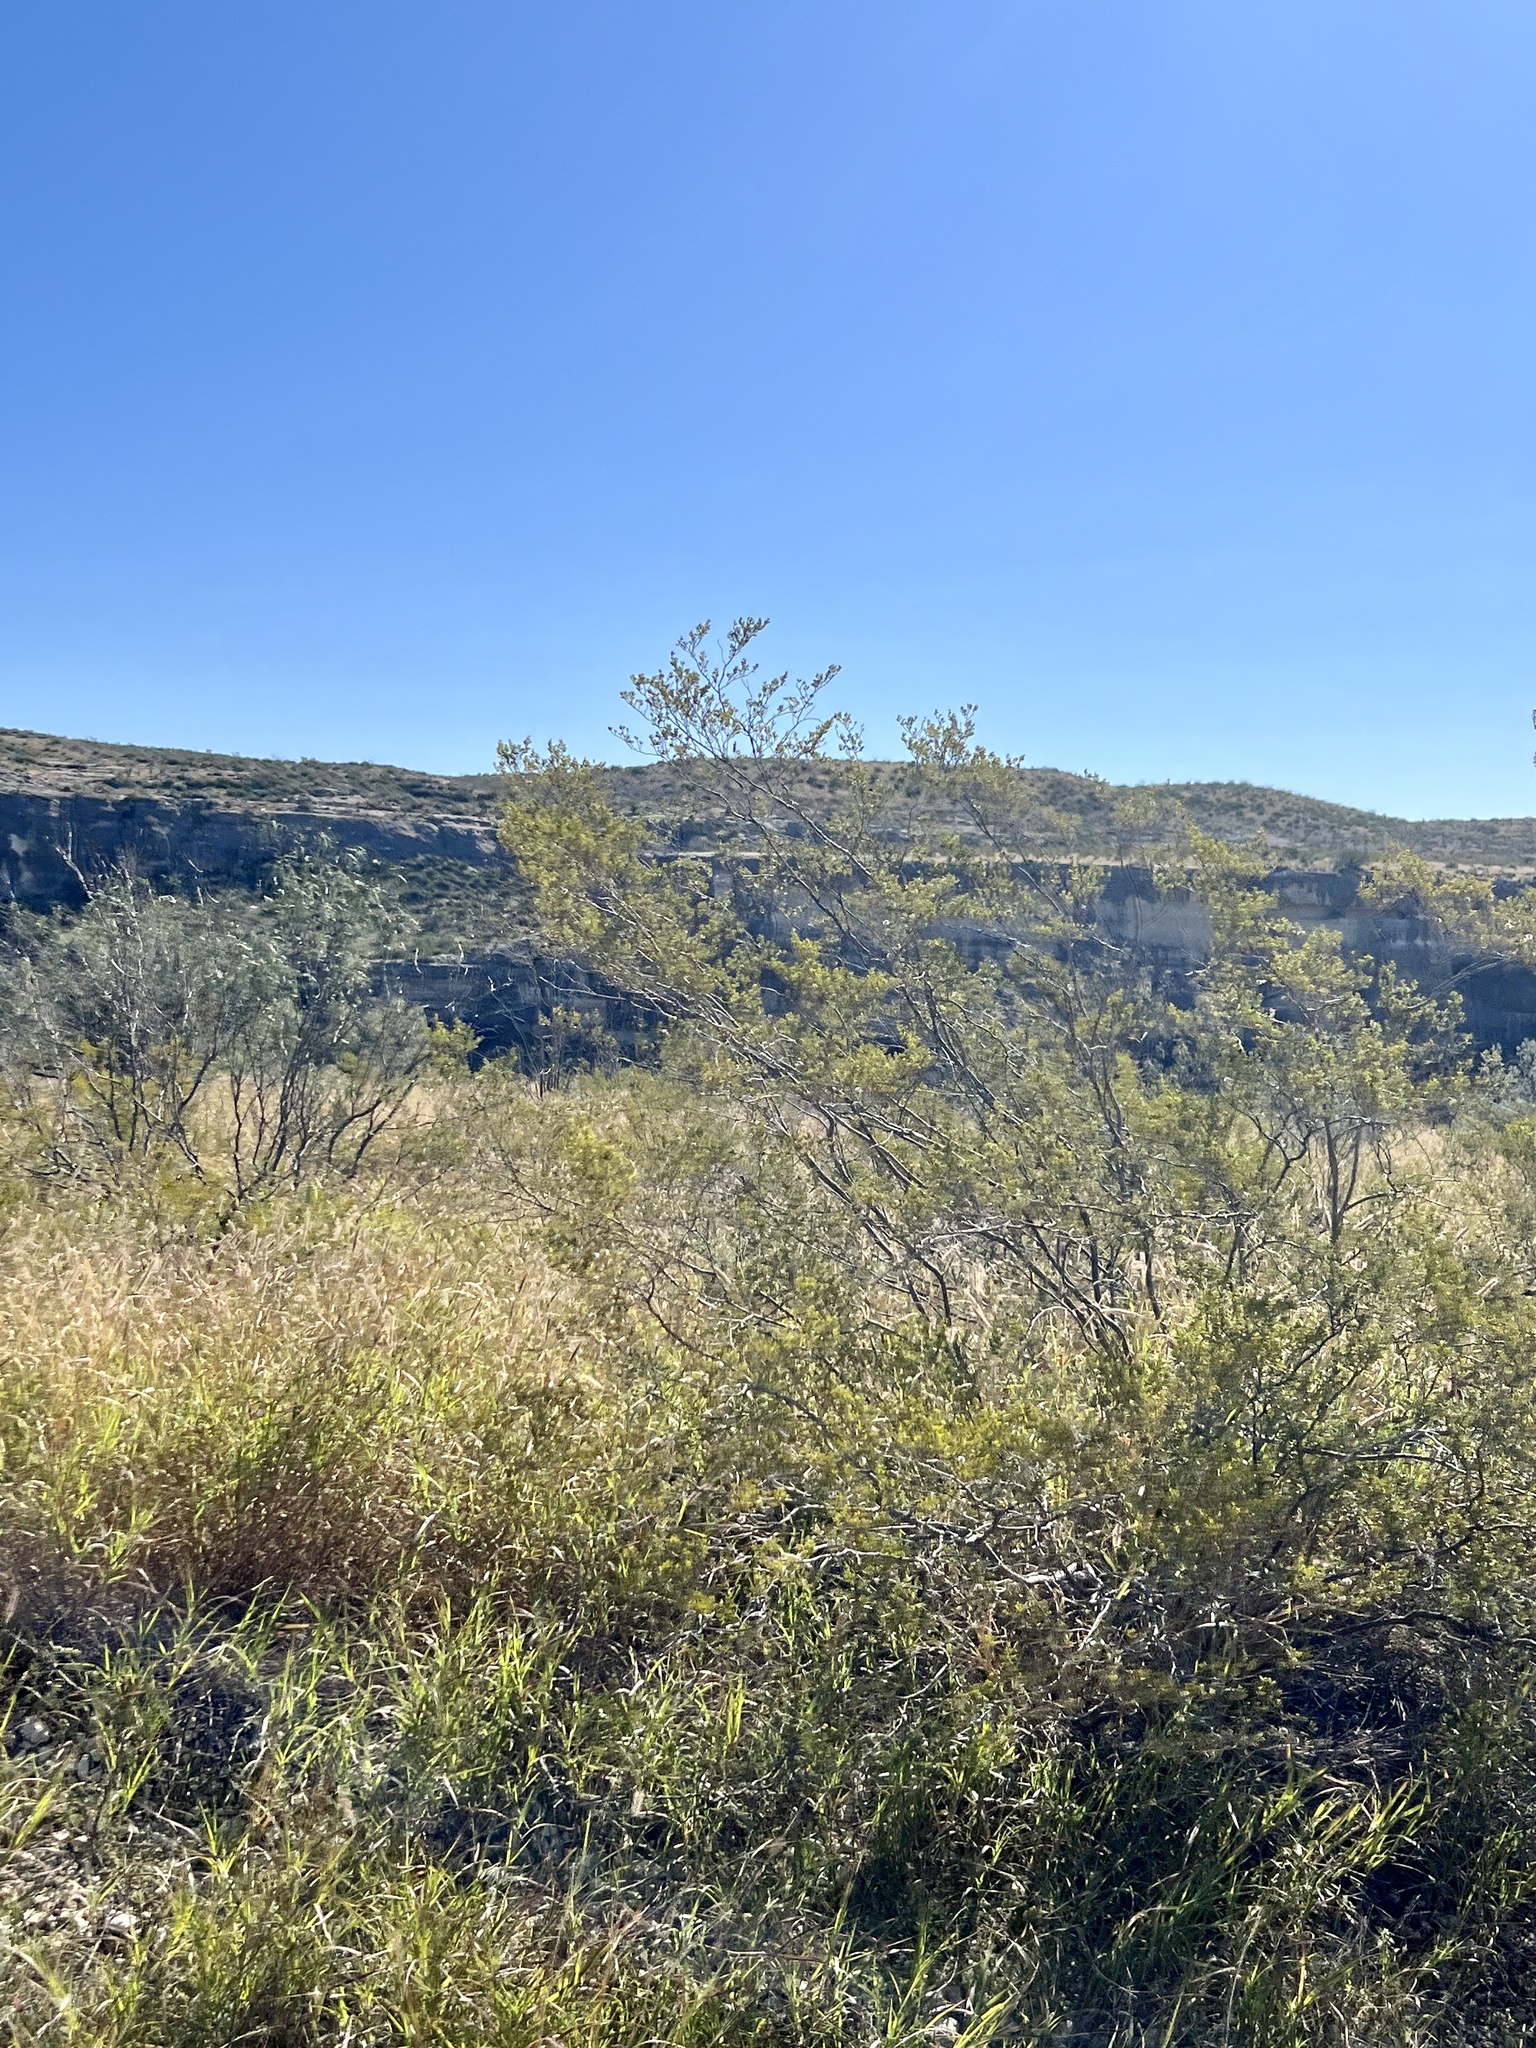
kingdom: Plantae
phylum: Tracheophyta
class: Magnoliopsida
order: Zygophyllales
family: Zygophyllaceae
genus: Larrea
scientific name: Larrea tridentata
